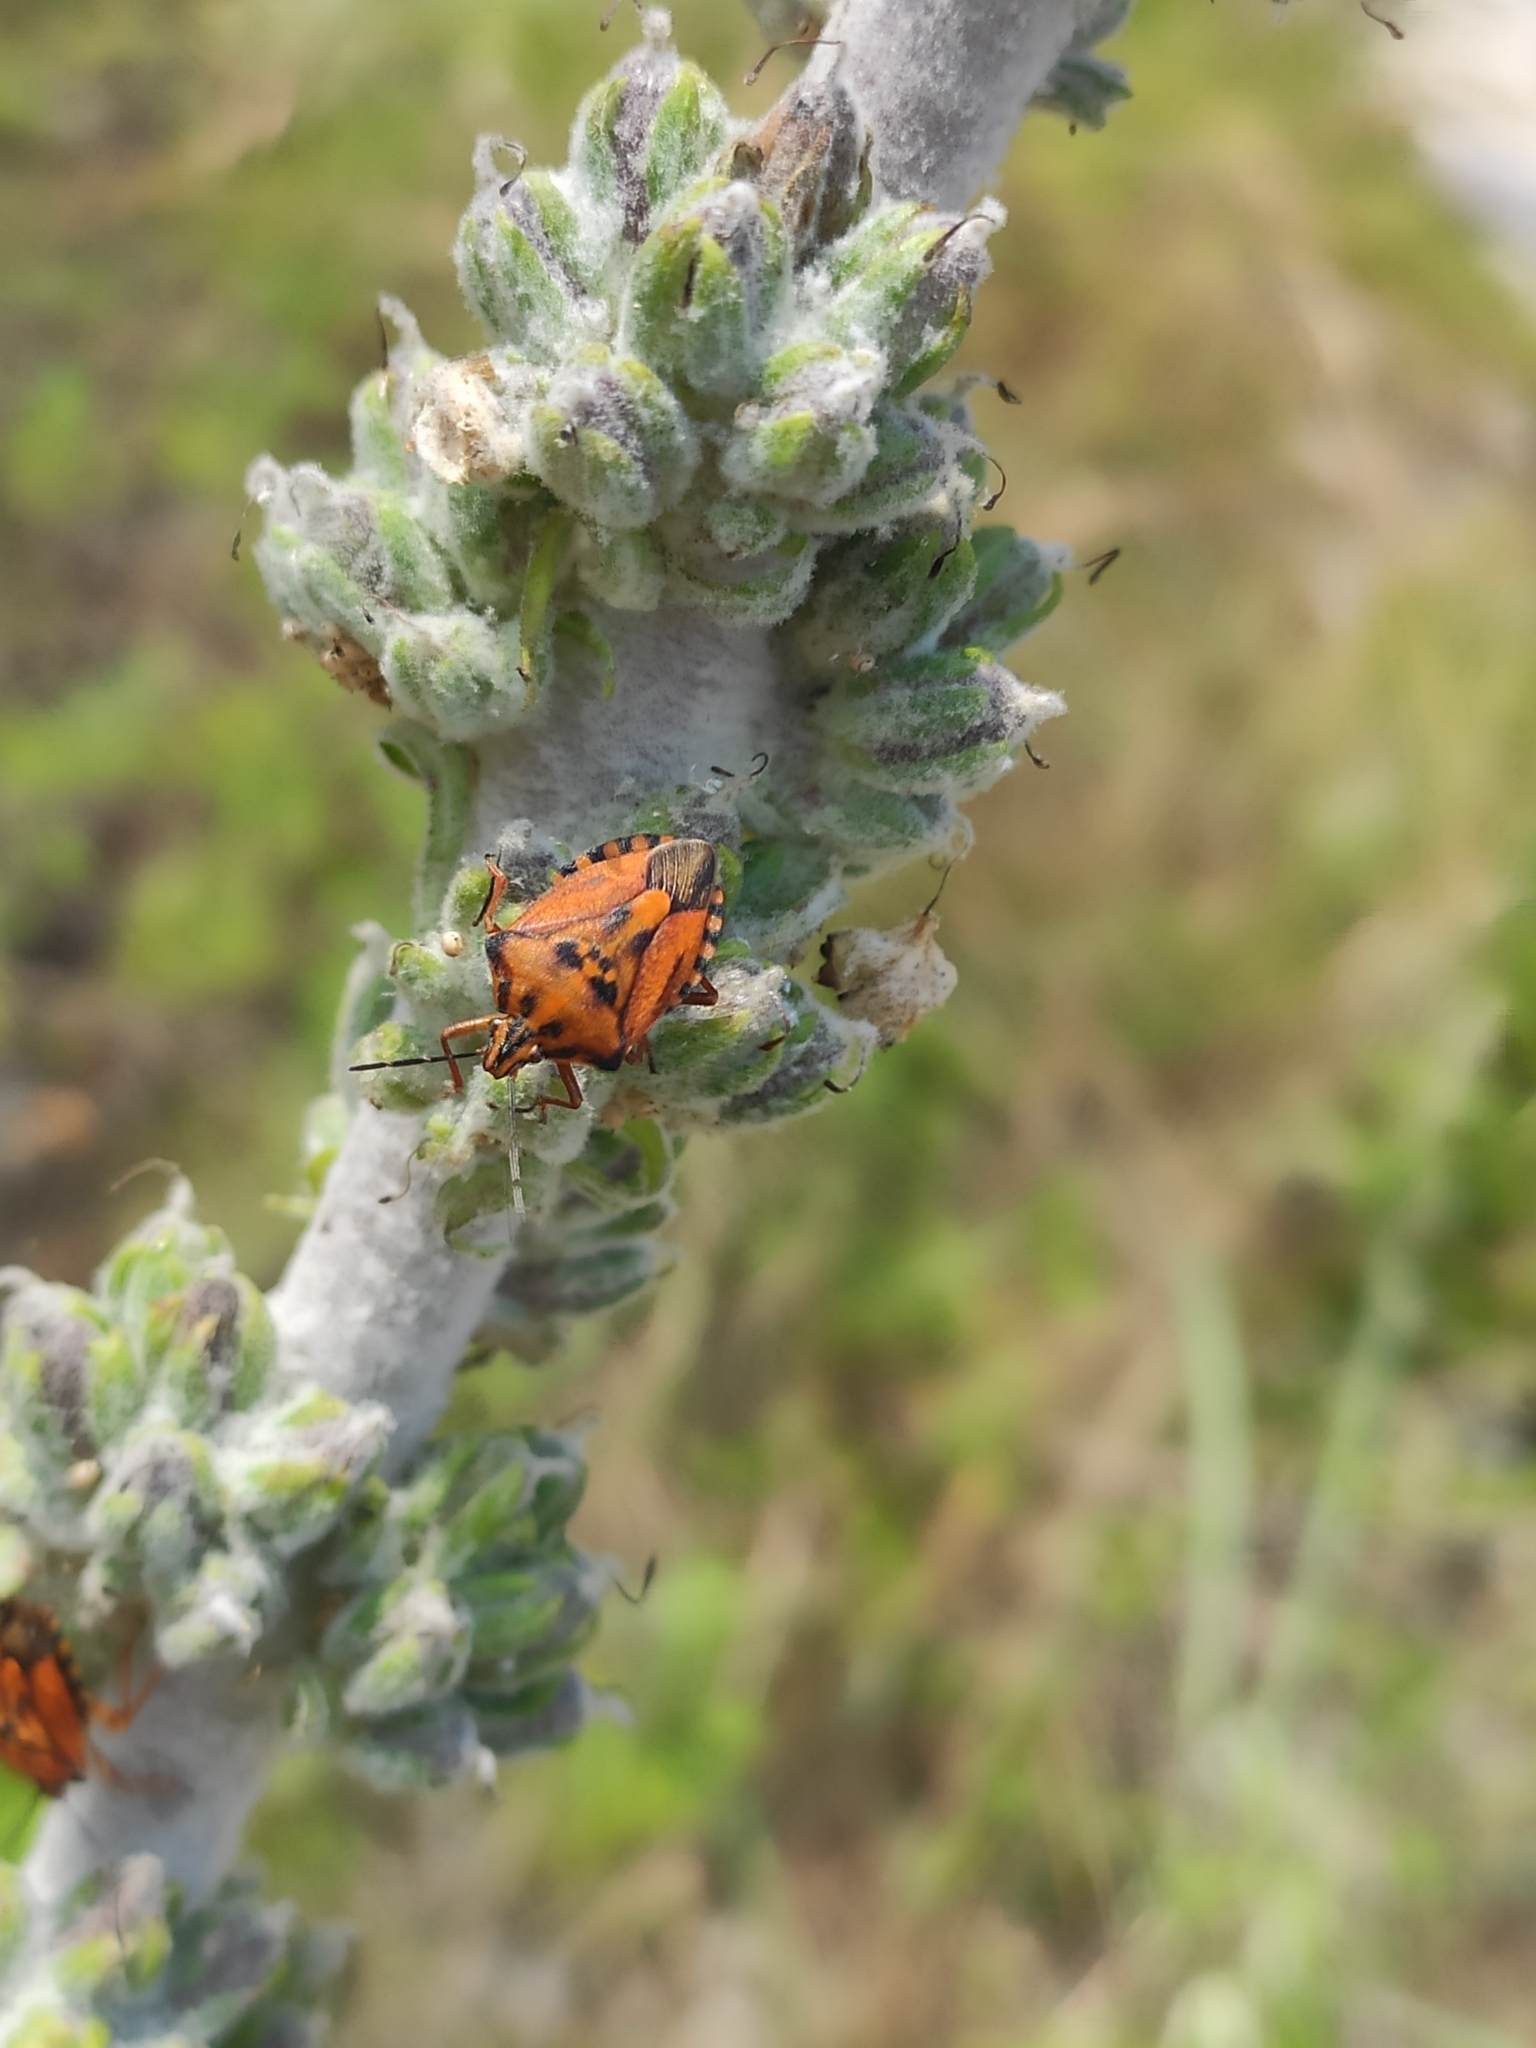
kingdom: Animalia
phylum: Arthropoda
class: Insecta
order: Hemiptera
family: Pentatomidae
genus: Carpocoris
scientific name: Carpocoris mediterraneus
